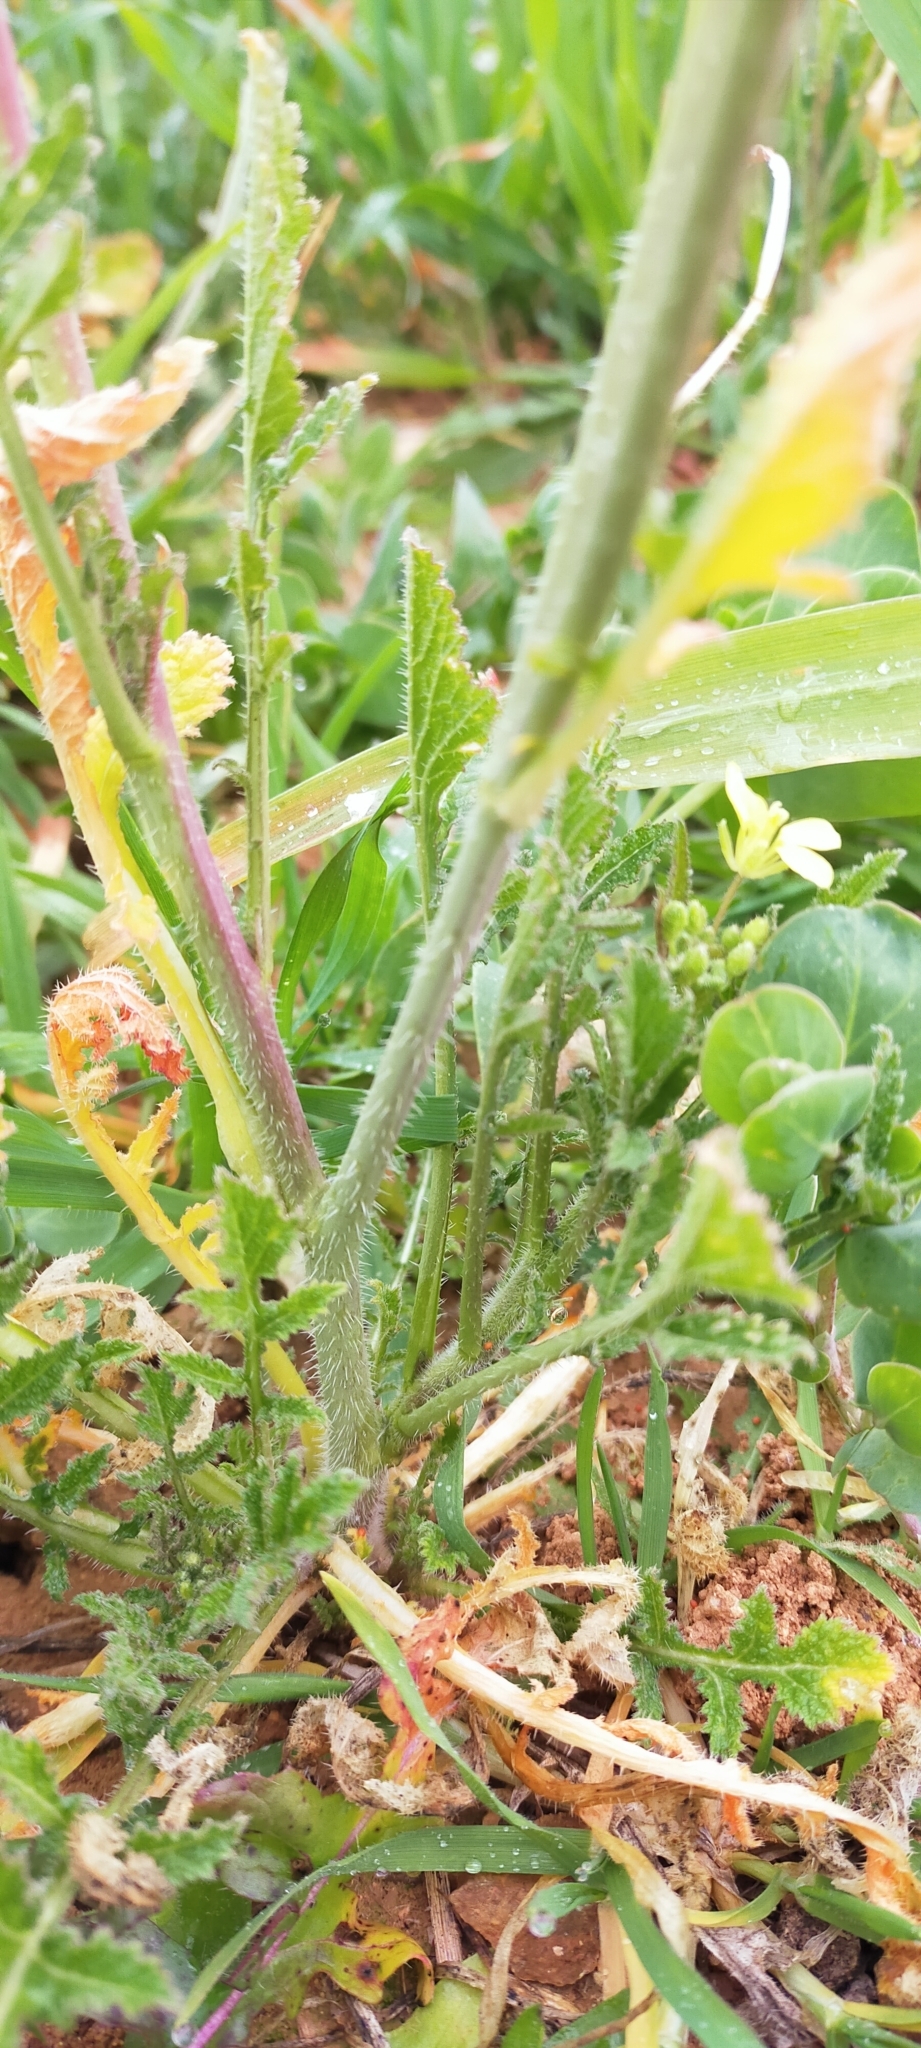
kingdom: Plantae
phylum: Tracheophyta
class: Magnoliopsida
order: Brassicales
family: Brassicaceae
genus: Diplotaxis
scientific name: Diplotaxis virgata
